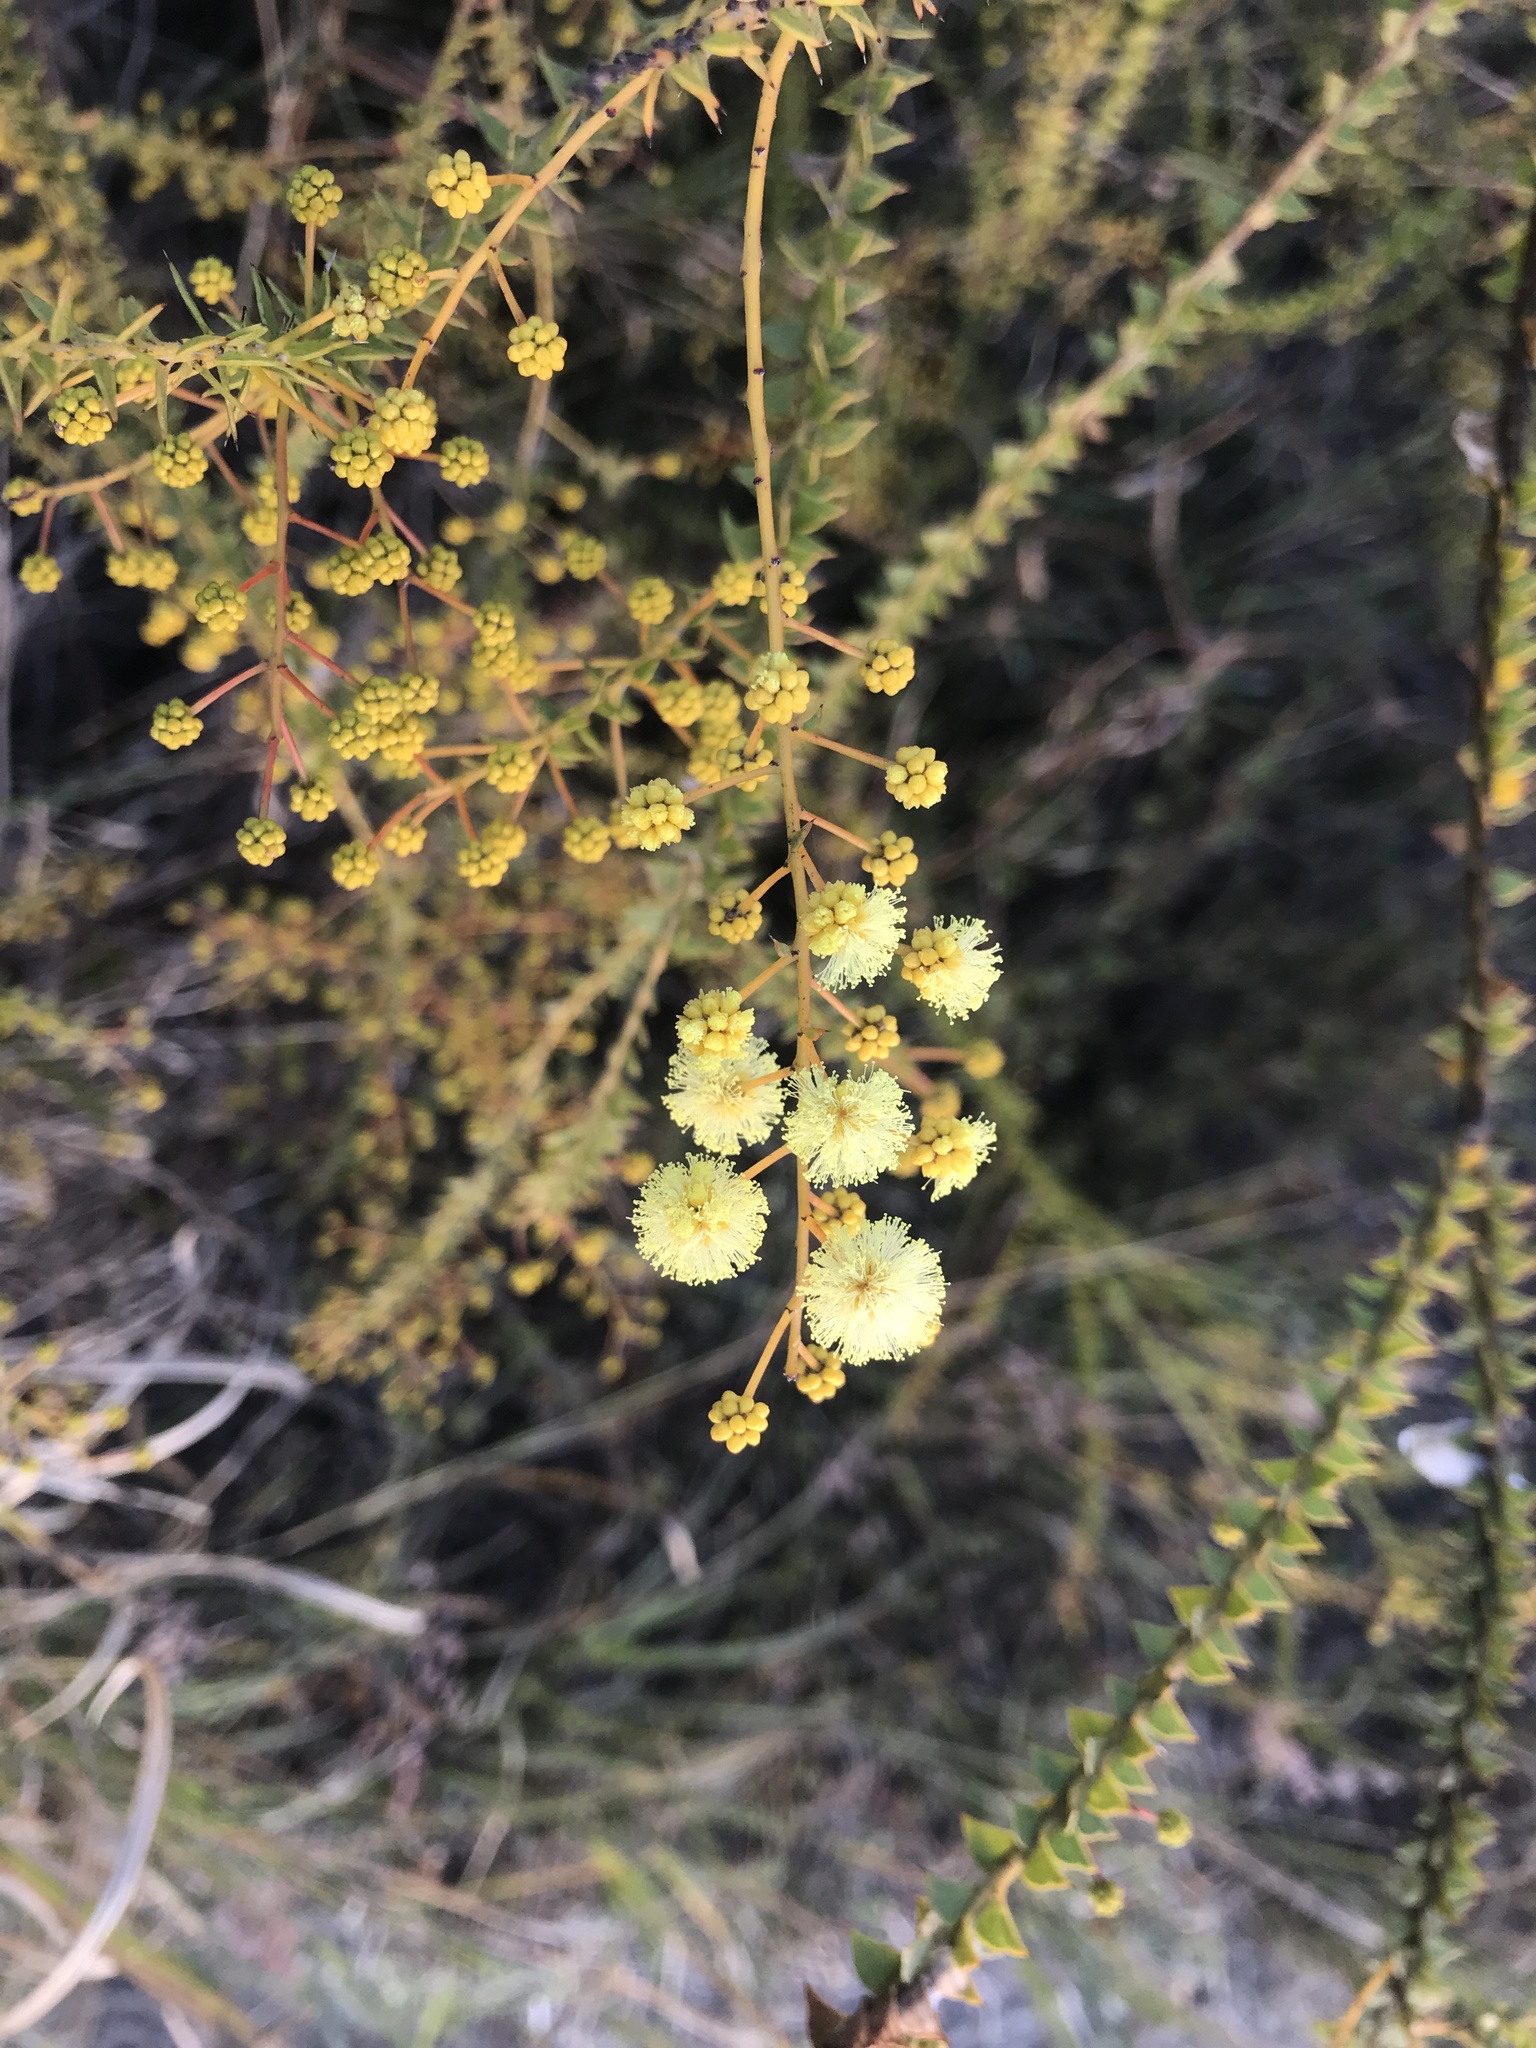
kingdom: Plantae
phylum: Tracheophyta
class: Magnoliopsida
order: Fabales
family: Fabaceae
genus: Acacia
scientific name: Acacia hubbardiana
